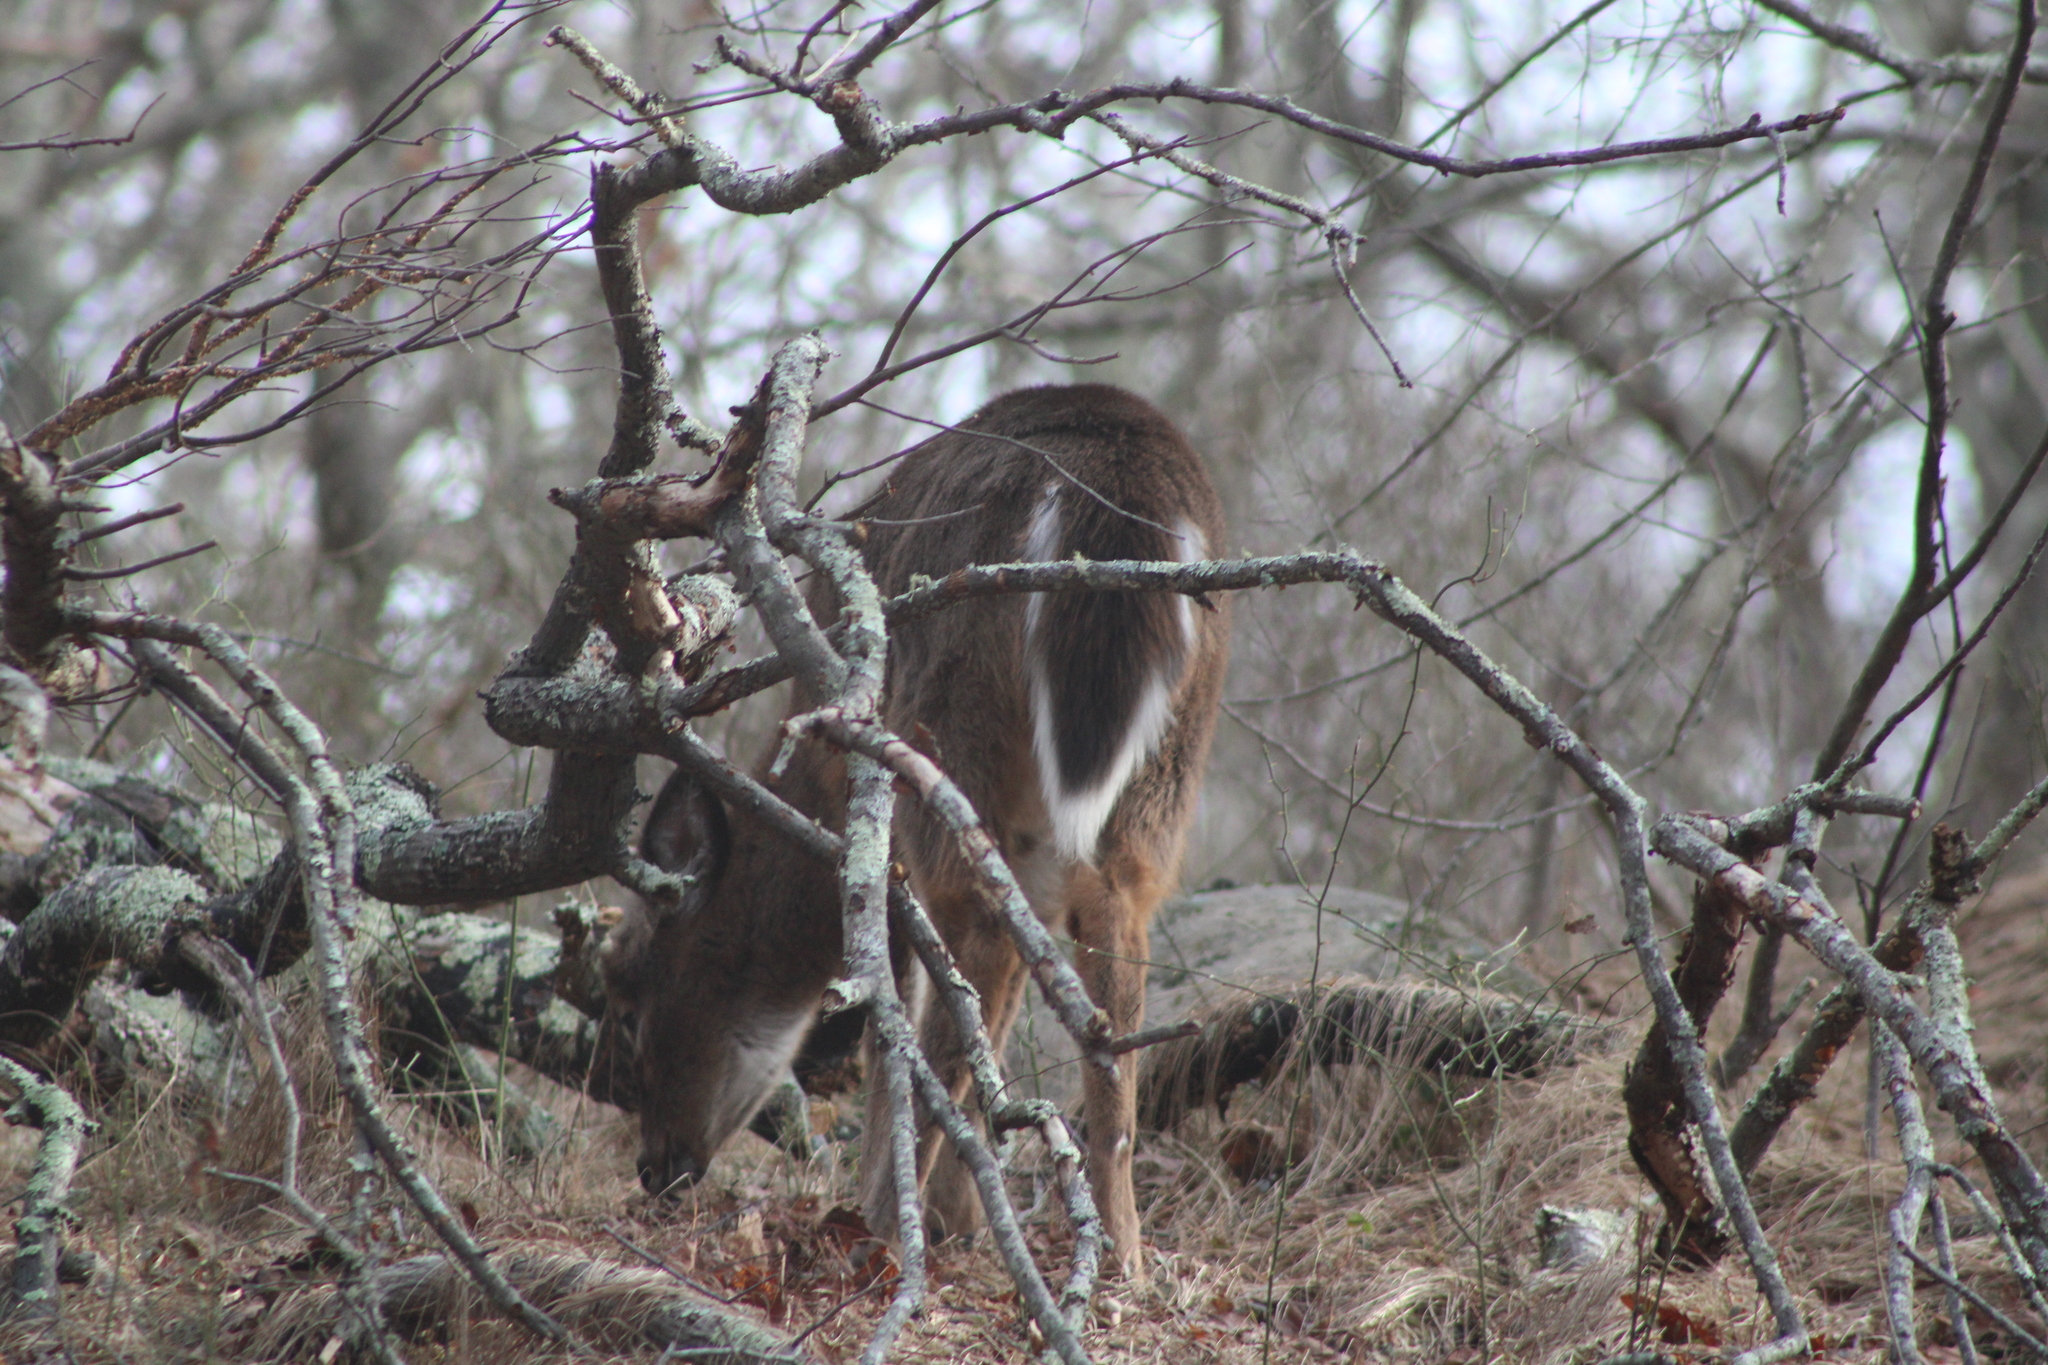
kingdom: Animalia
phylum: Chordata
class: Mammalia
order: Artiodactyla
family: Cervidae
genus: Odocoileus
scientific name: Odocoileus virginianus
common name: White-tailed deer
